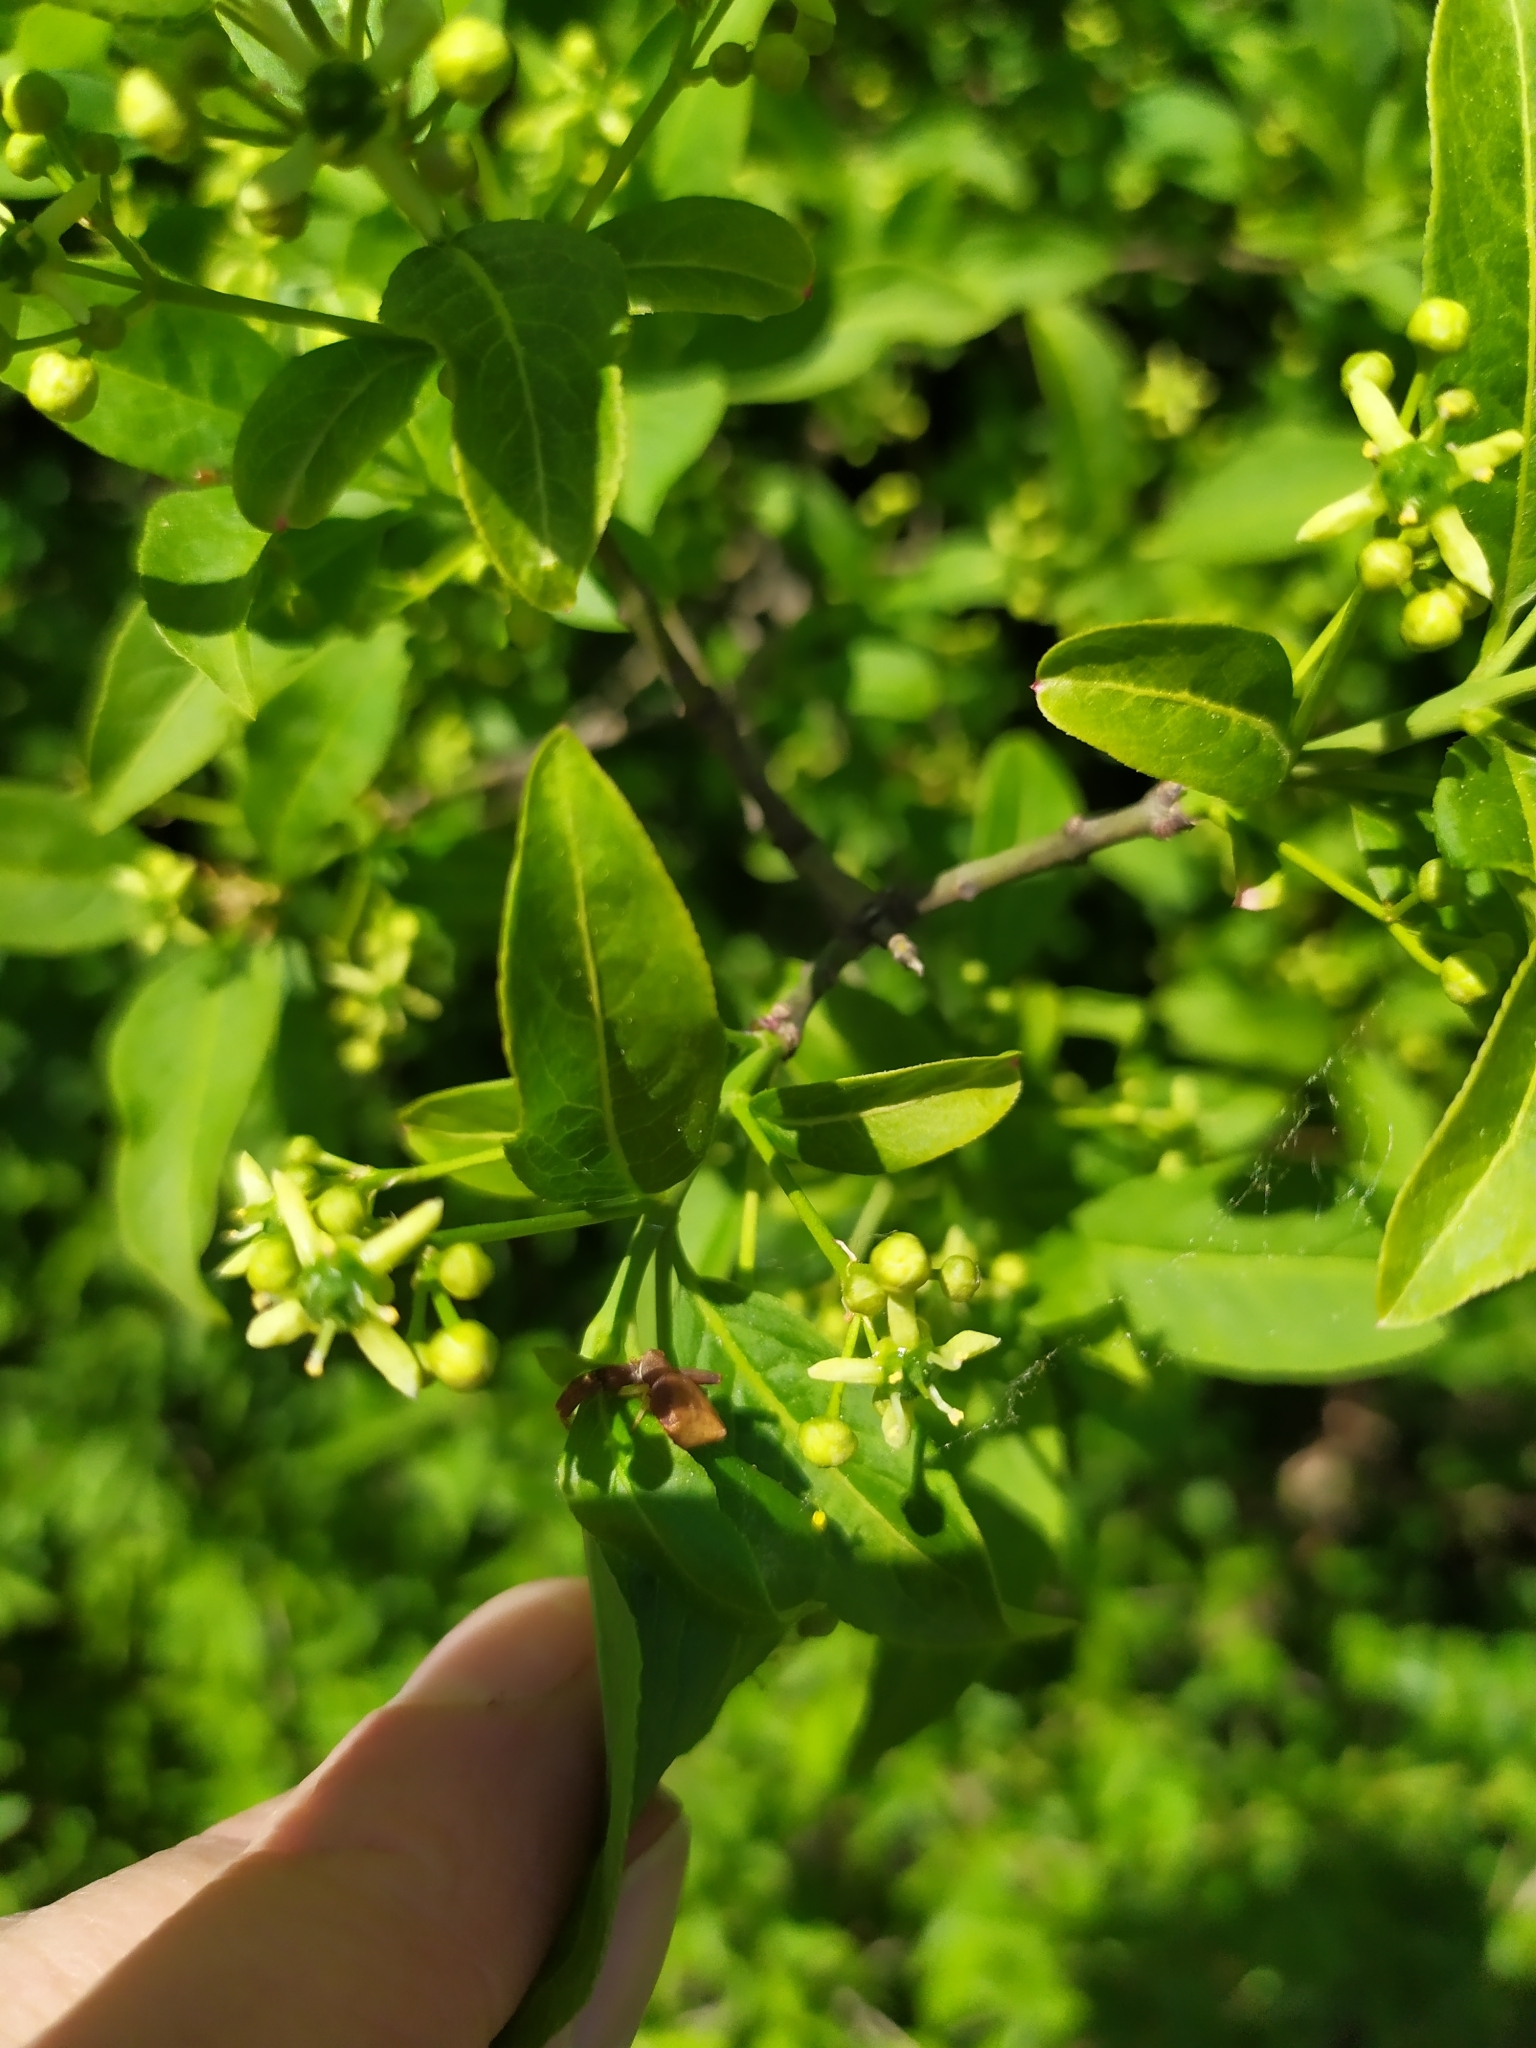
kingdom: Plantae
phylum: Tracheophyta
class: Magnoliopsida
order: Celastrales
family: Celastraceae
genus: Euonymus
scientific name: Euonymus europaeus
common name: Spindle
